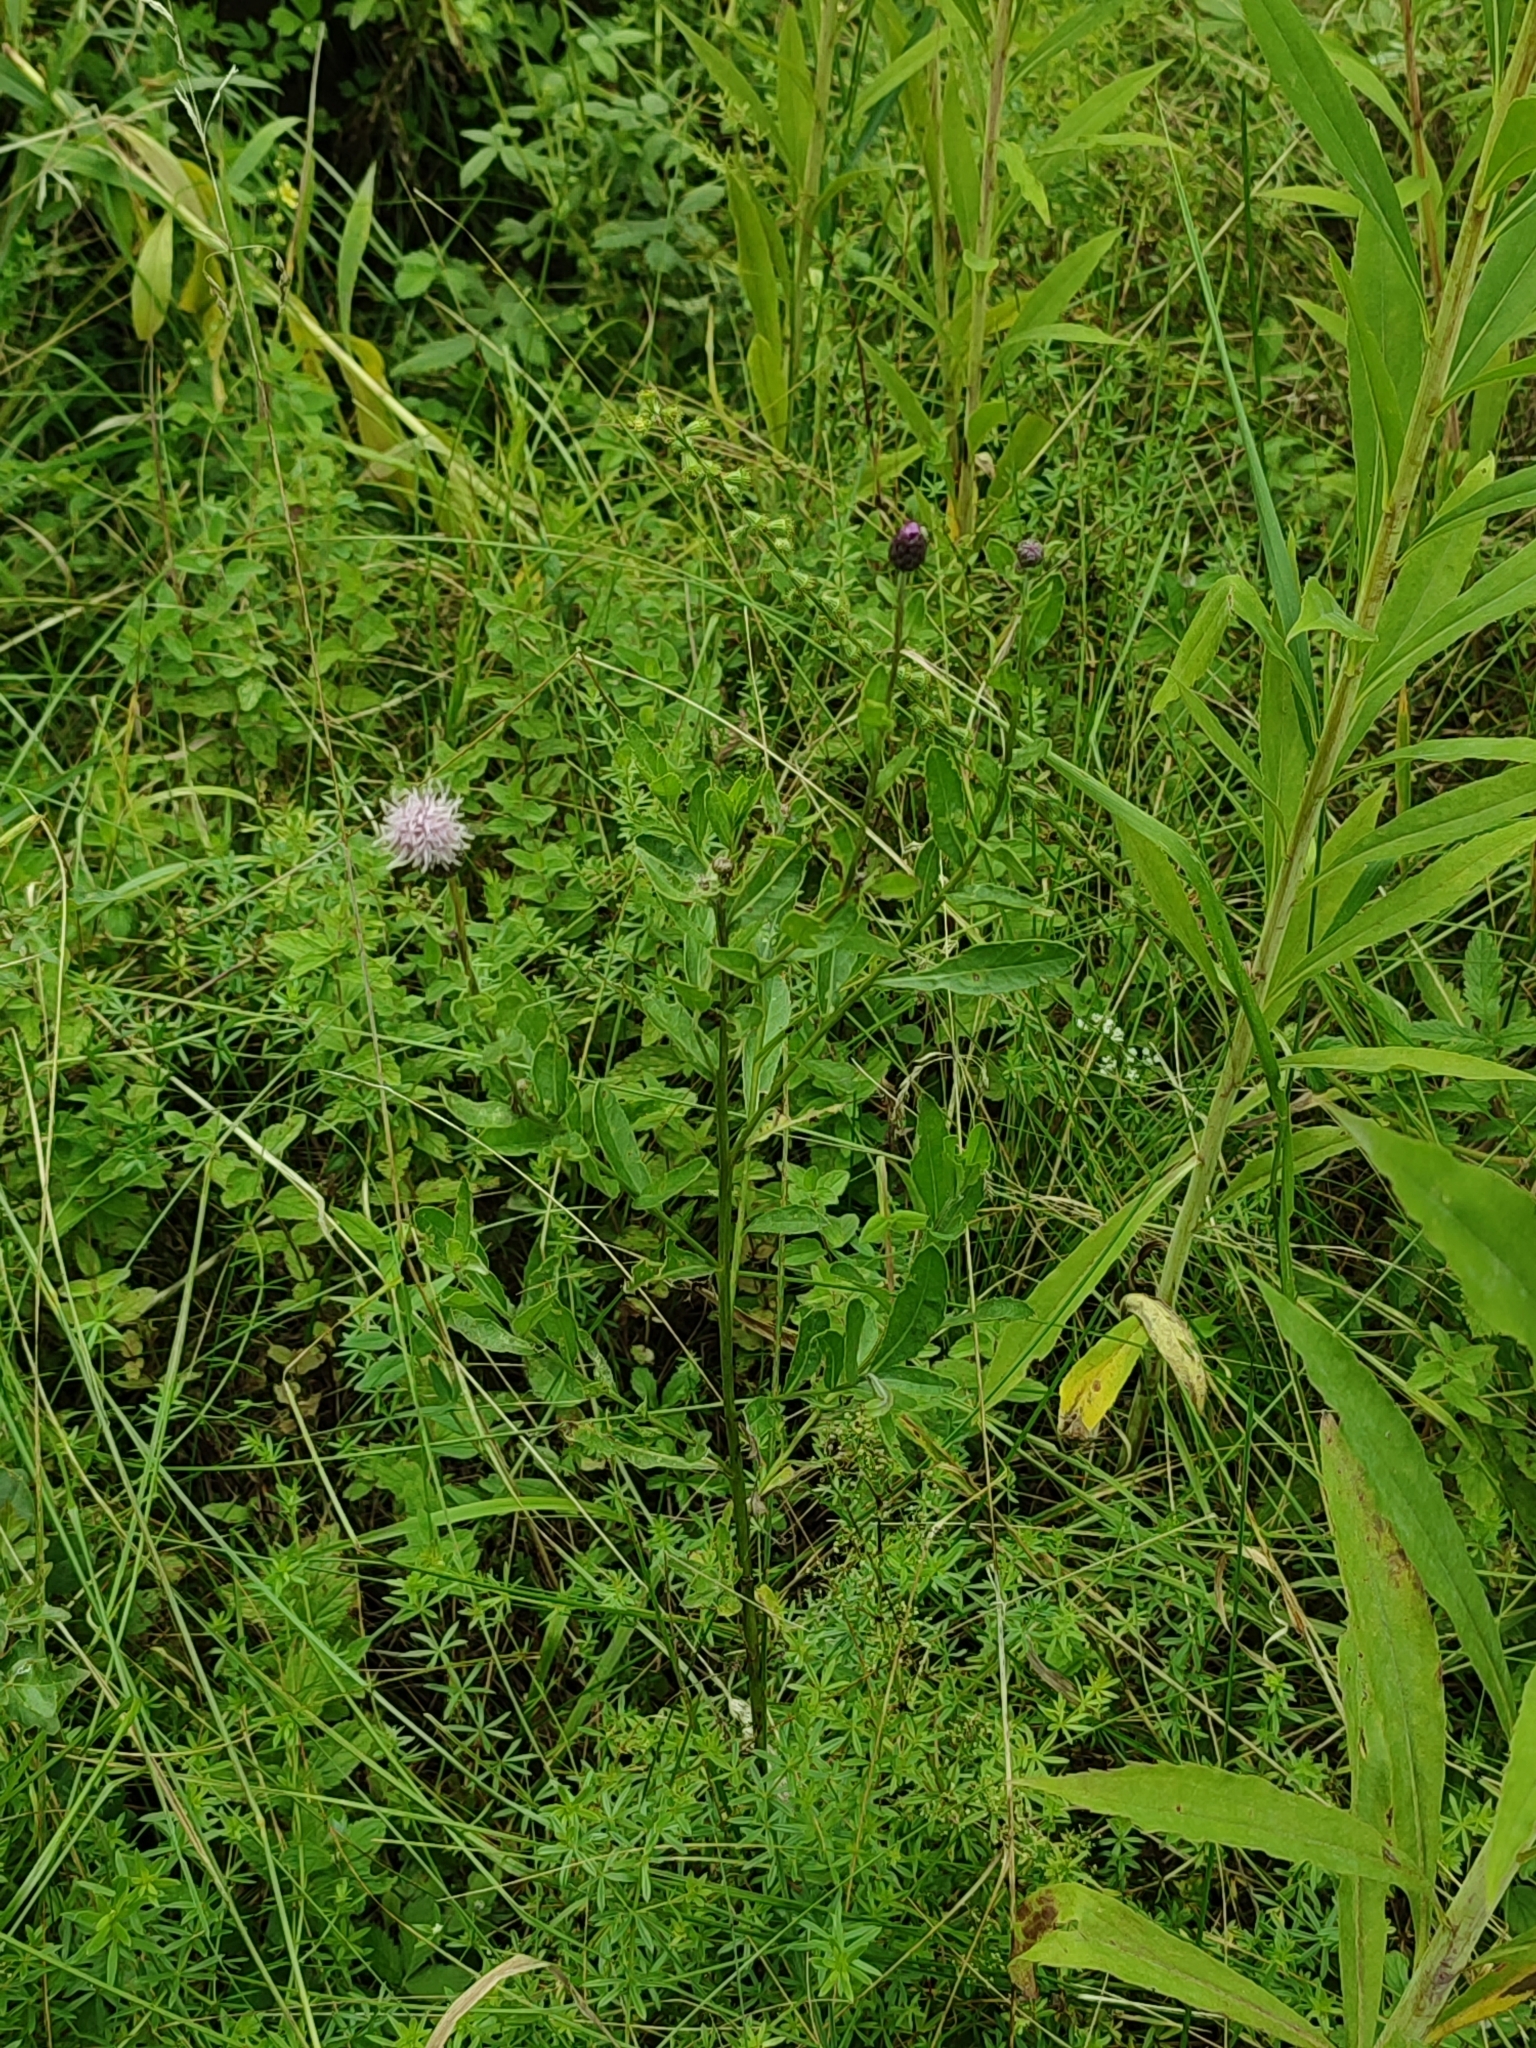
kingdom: Plantae
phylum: Tracheophyta
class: Magnoliopsida
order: Asterales
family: Asteraceae
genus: Cirsium
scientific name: Cirsium arvense
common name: Creeping thistle
